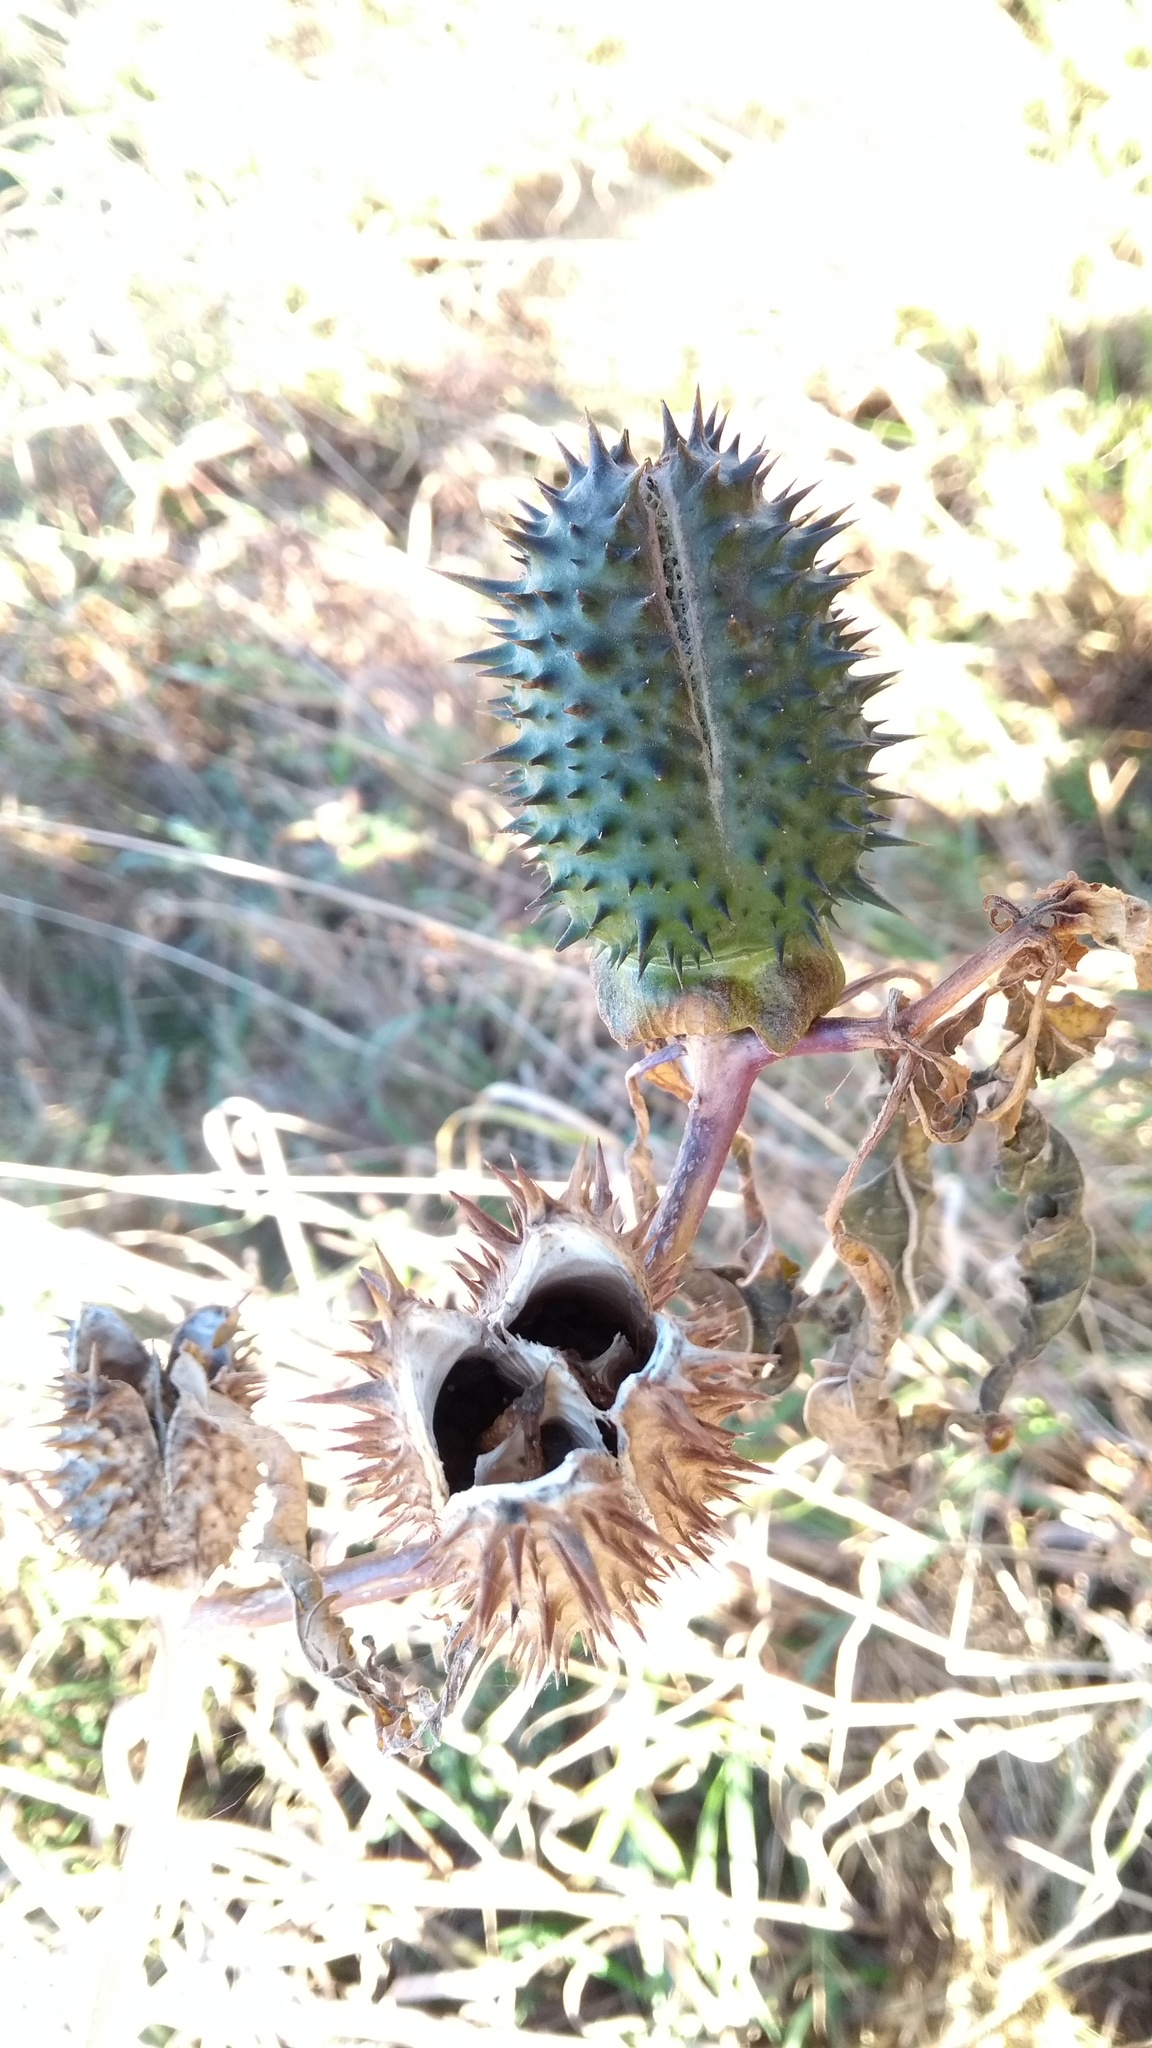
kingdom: Plantae
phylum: Tracheophyta
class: Magnoliopsida
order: Solanales
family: Solanaceae
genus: Datura
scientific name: Datura stramonium
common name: Thorn-apple
